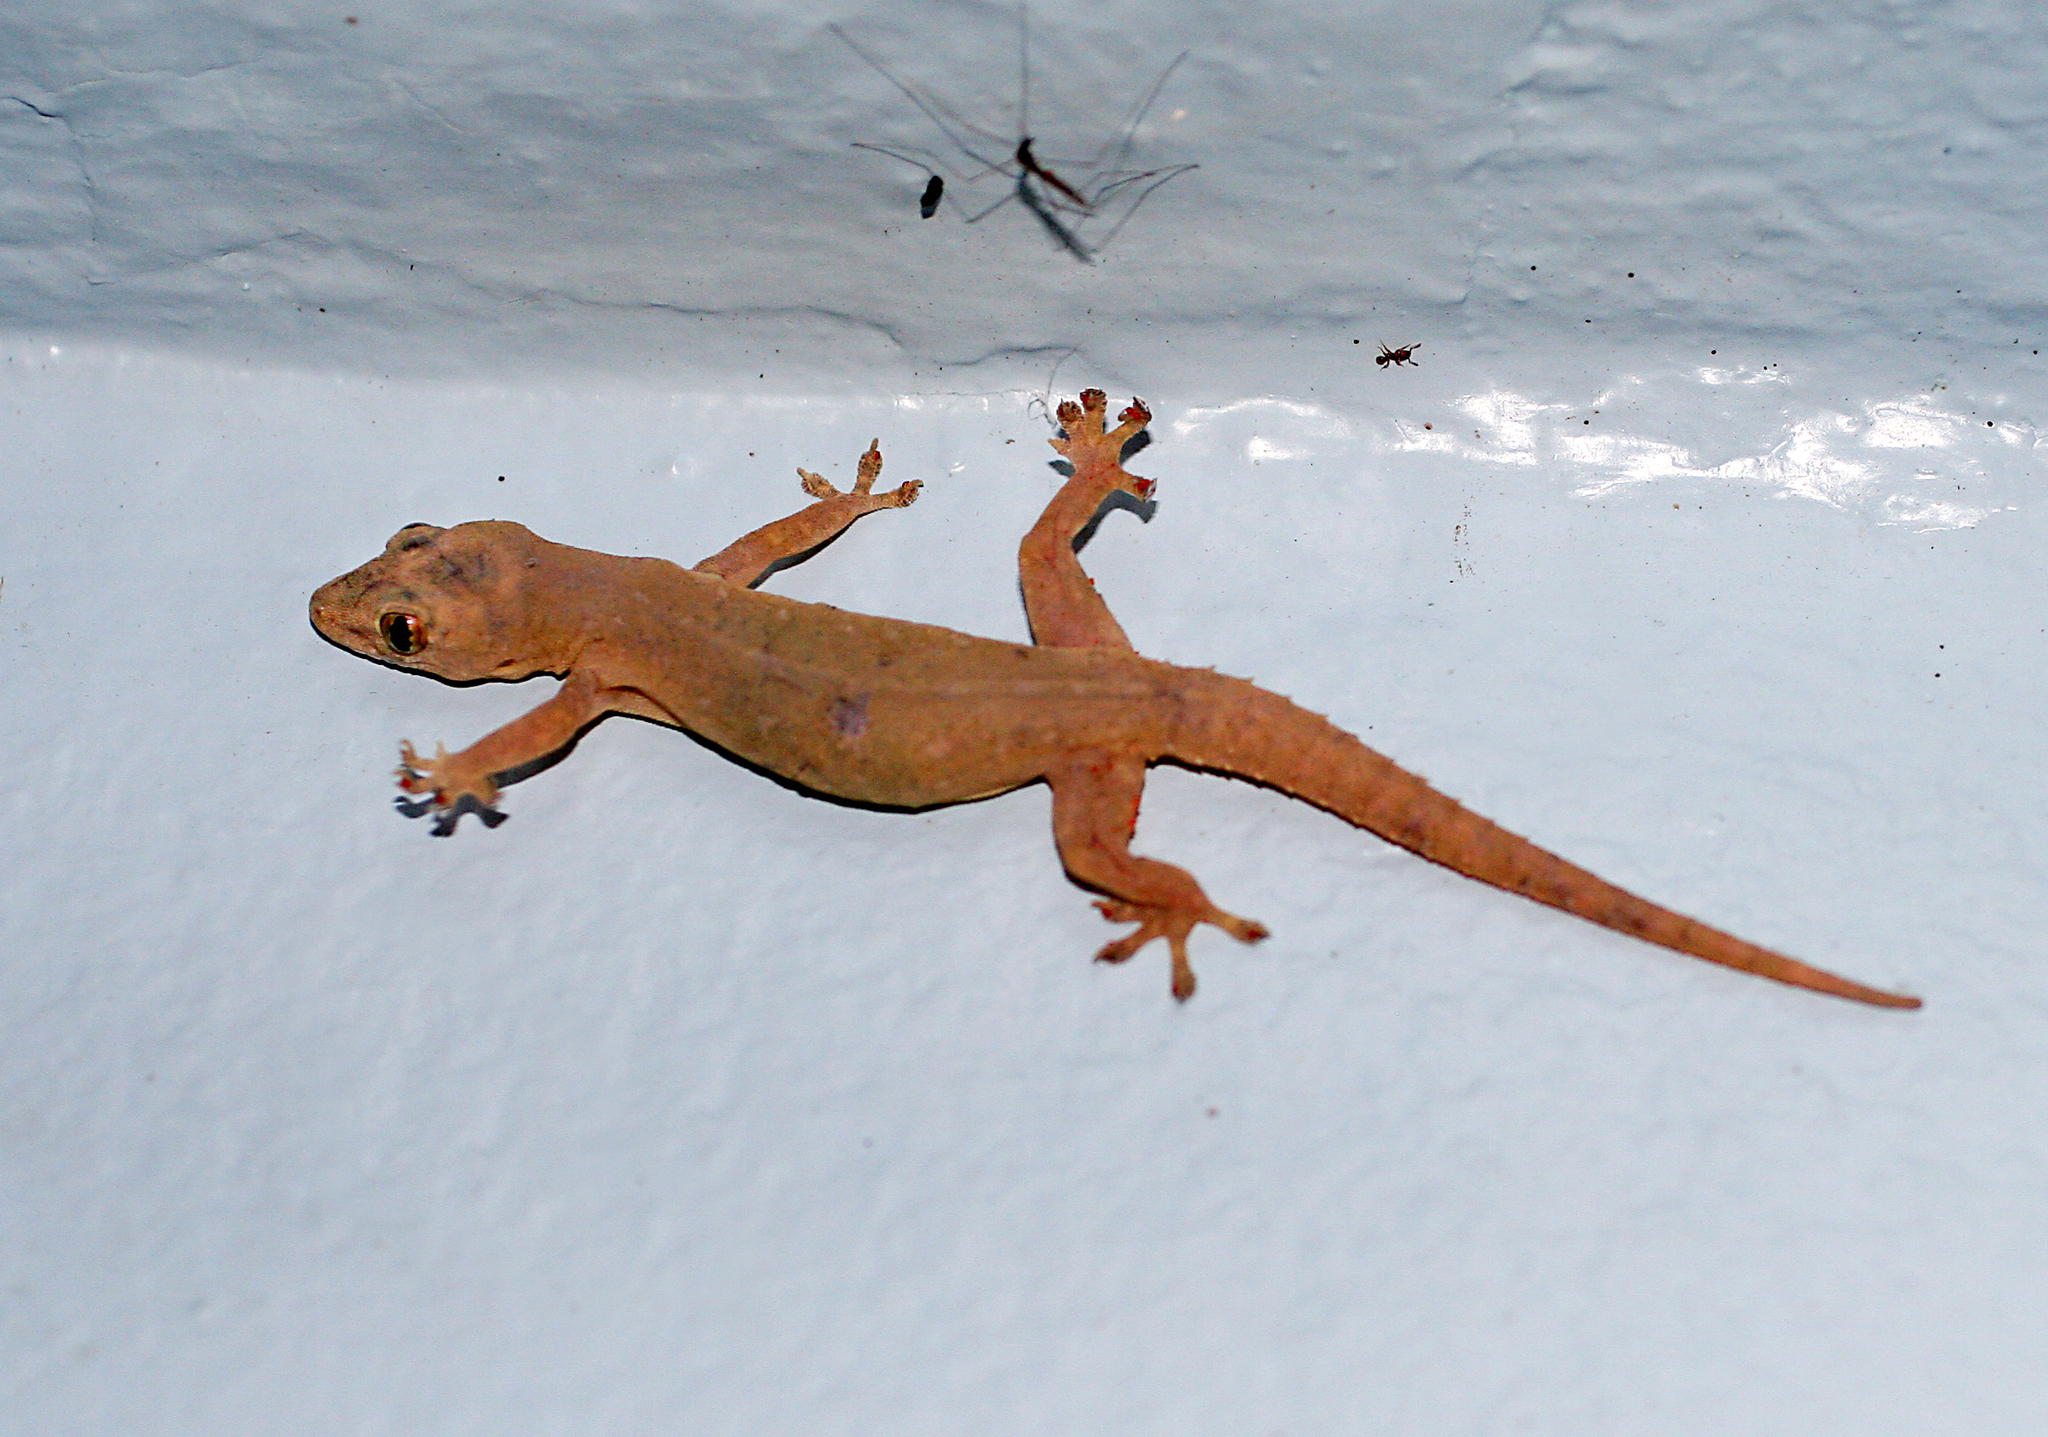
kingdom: Animalia
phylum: Chordata
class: Squamata
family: Gekkonidae
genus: Hemidactylus
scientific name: Hemidactylus frenatus
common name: Common house gecko
